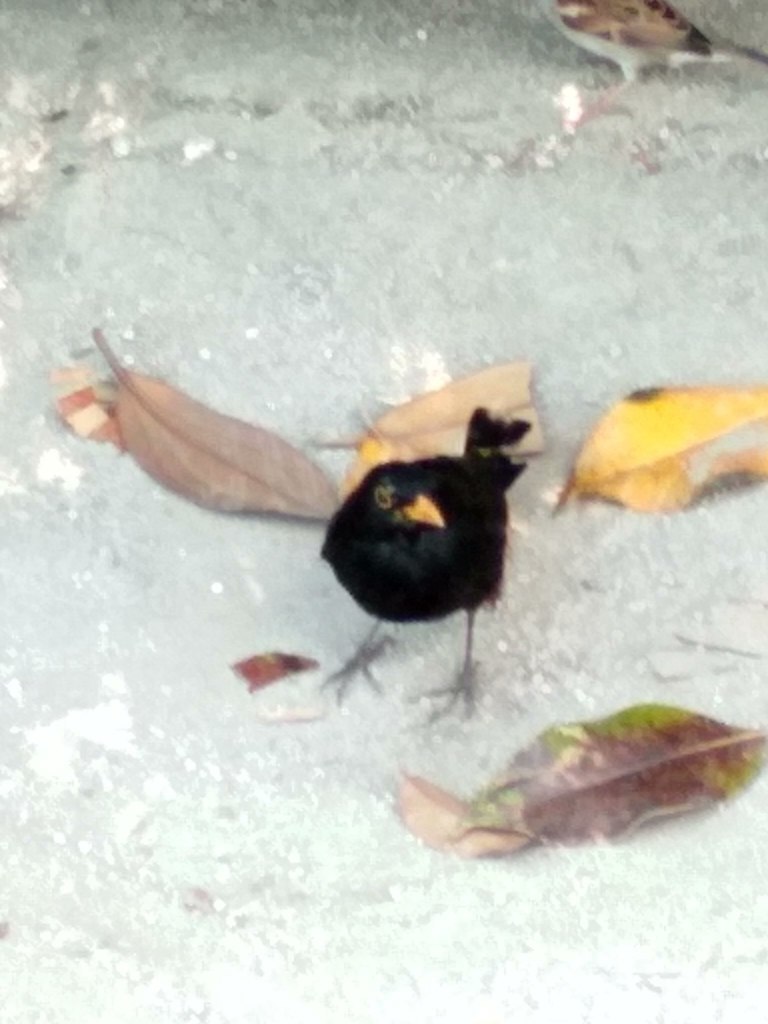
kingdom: Animalia
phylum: Chordata
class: Aves
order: Passeriformes
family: Turdidae
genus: Turdus
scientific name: Turdus merula
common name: Common blackbird
